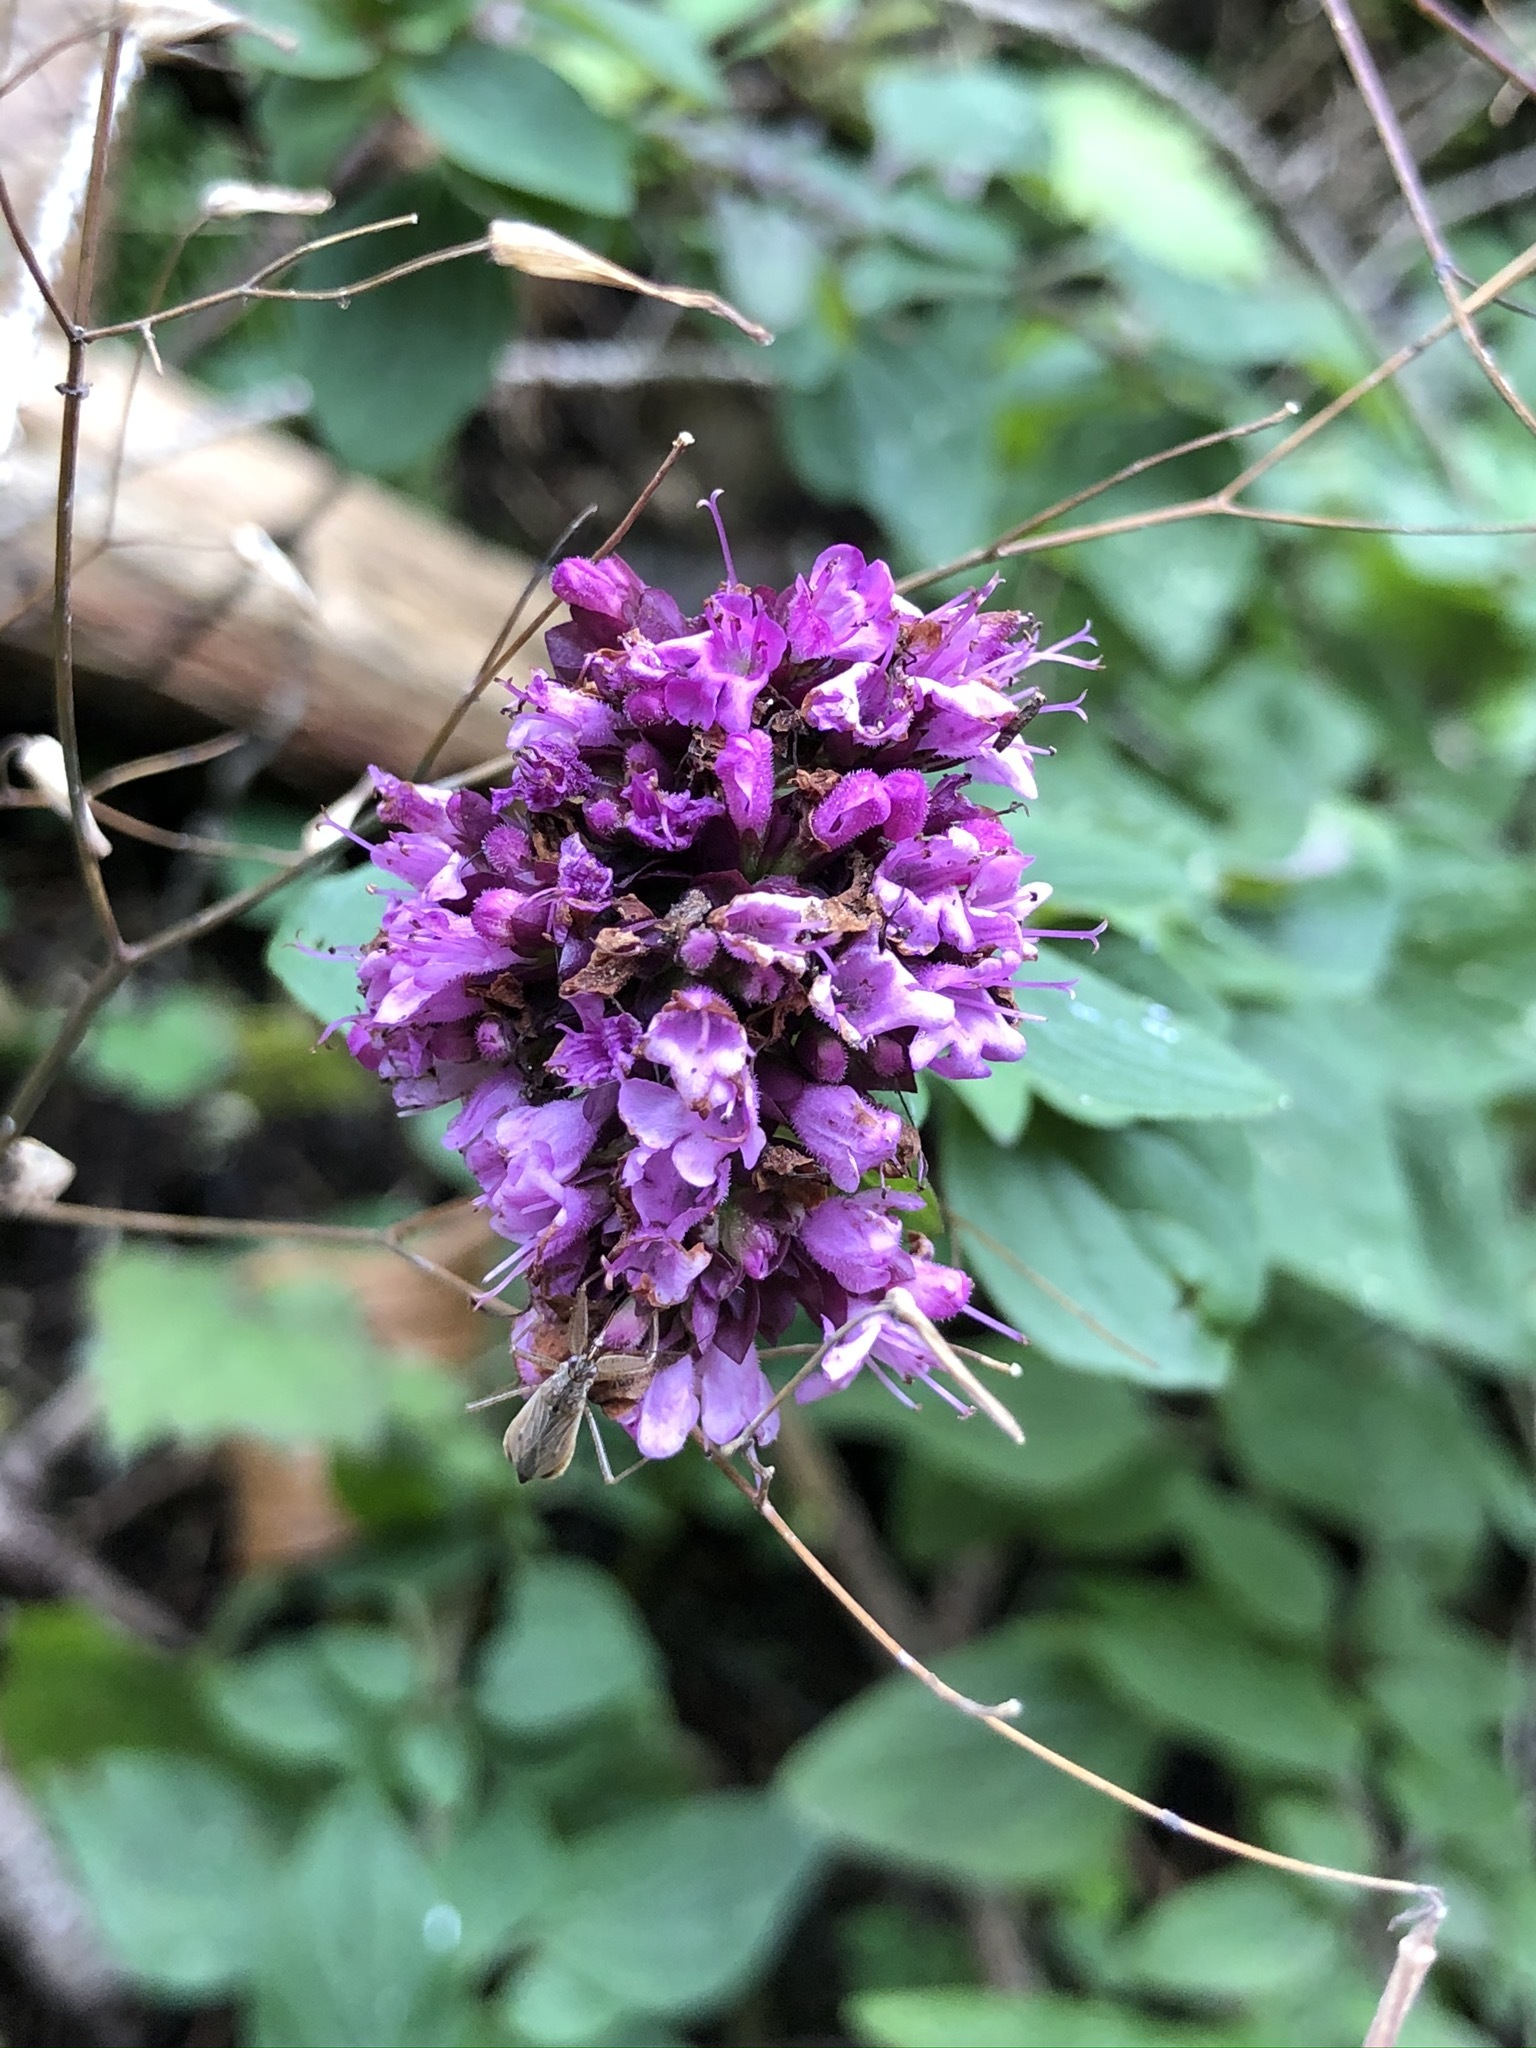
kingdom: Plantae
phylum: Tracheophyta
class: Magnoliopsida
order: Lamiales
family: Lamiaceae
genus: Origanum
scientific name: Origanum vulgare
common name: Wild marjoram
